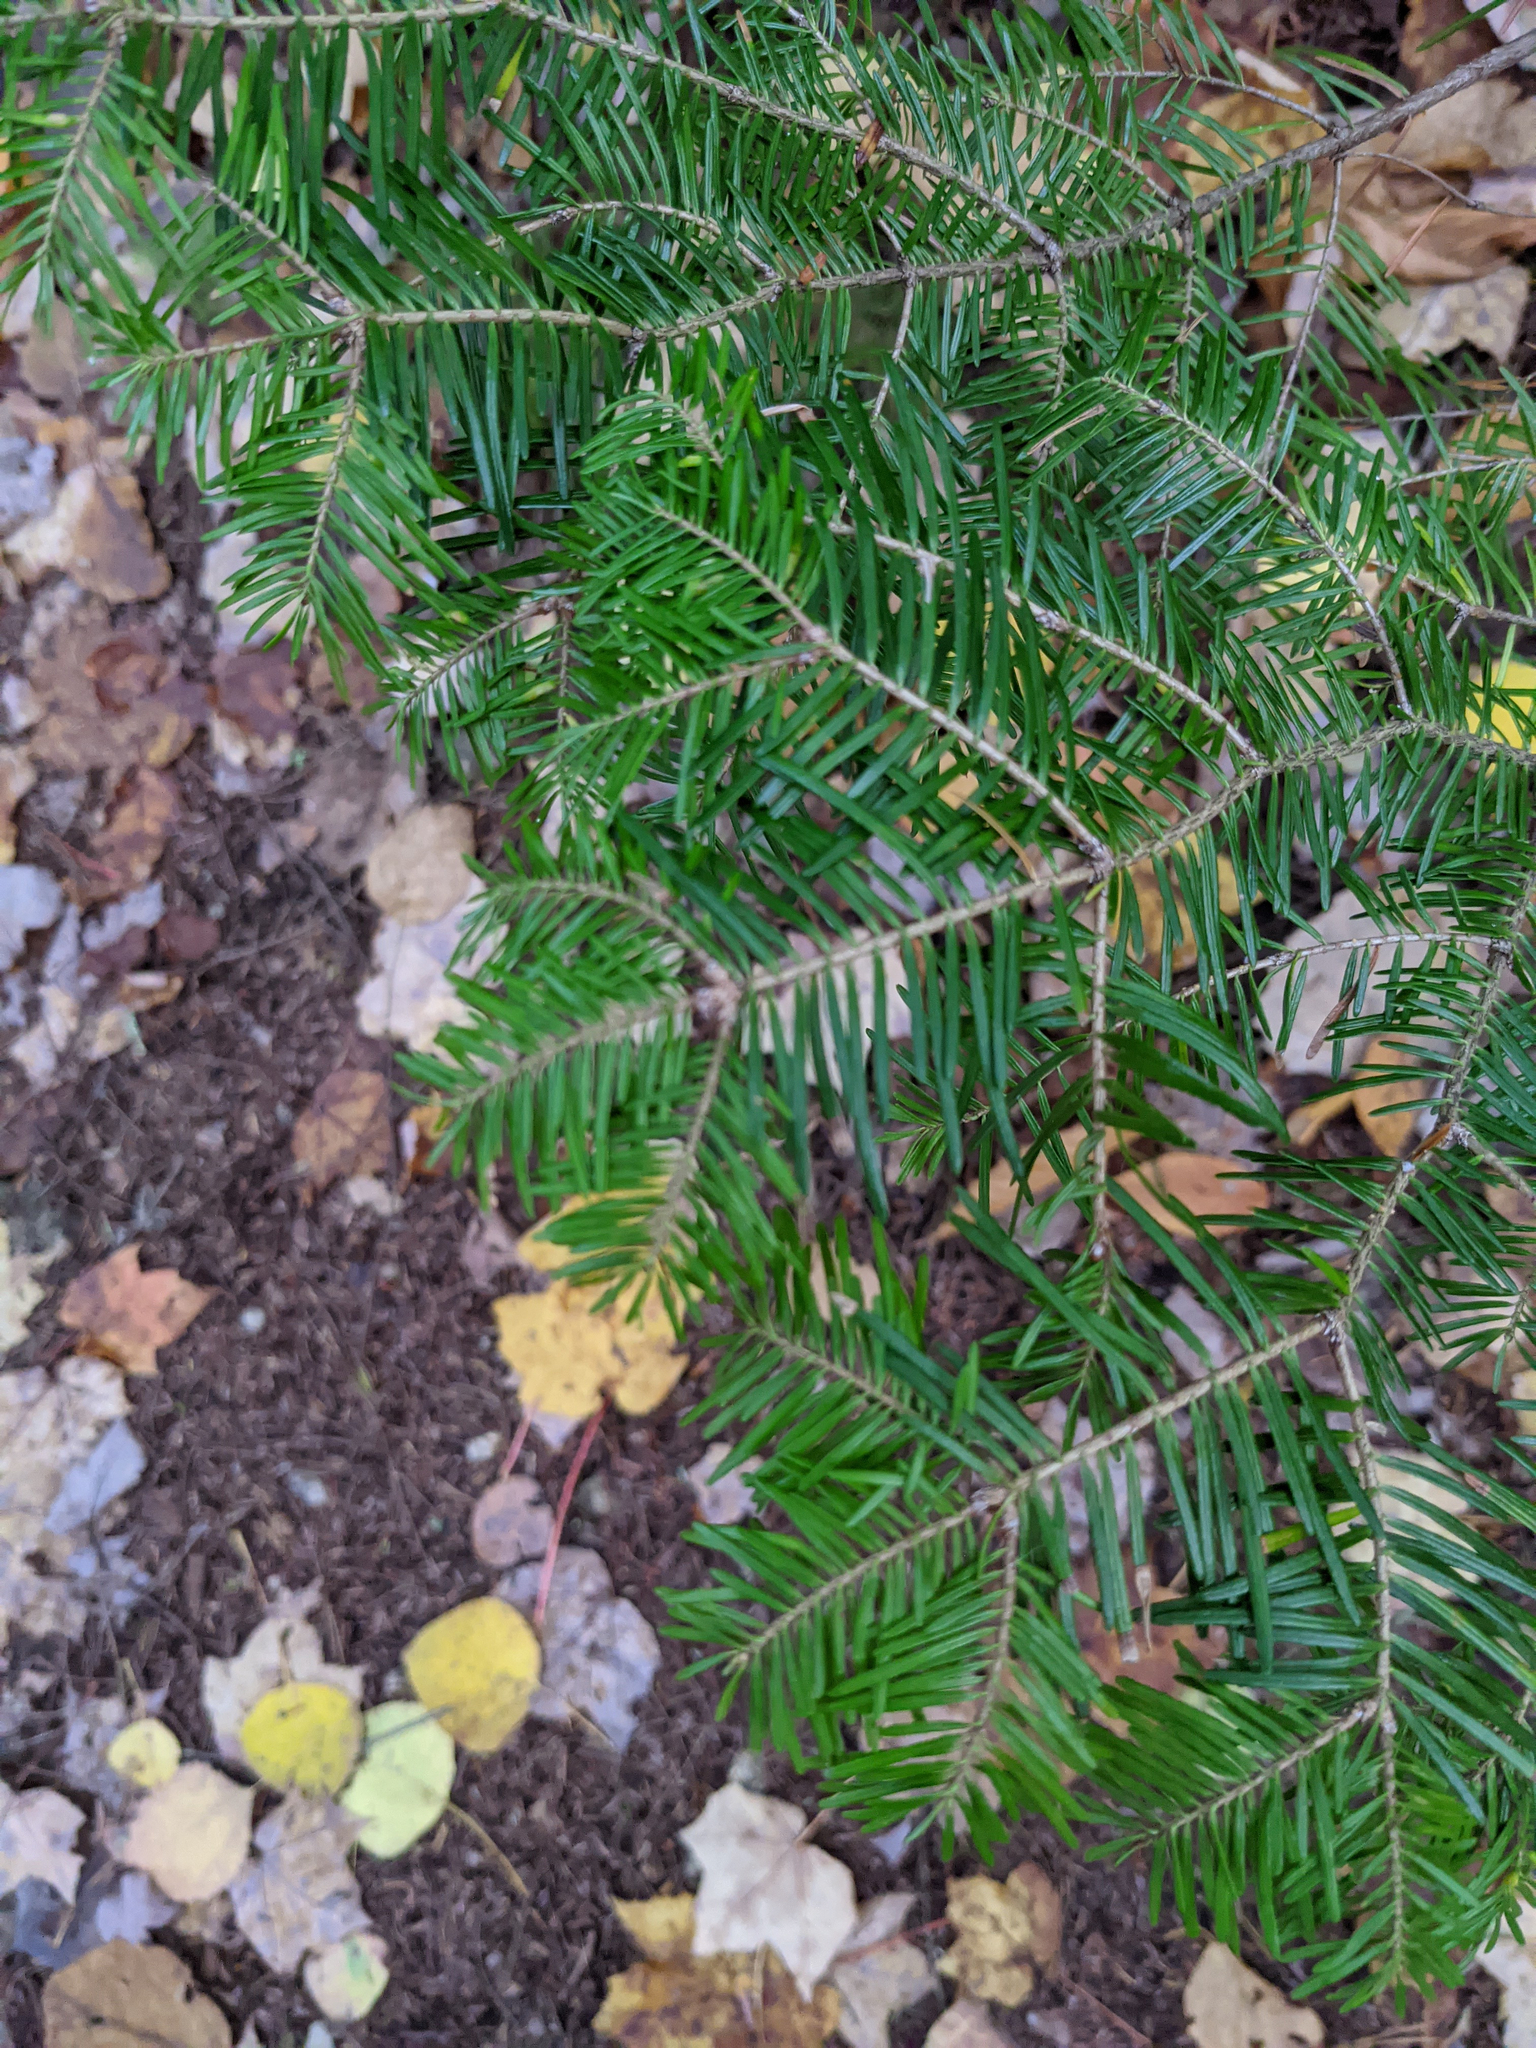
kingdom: Plantae
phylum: Tracheophyta
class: Pinopsida
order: Pinales
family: Pinaceae
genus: Abies
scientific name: Abies balsamea
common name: Balsam fir
